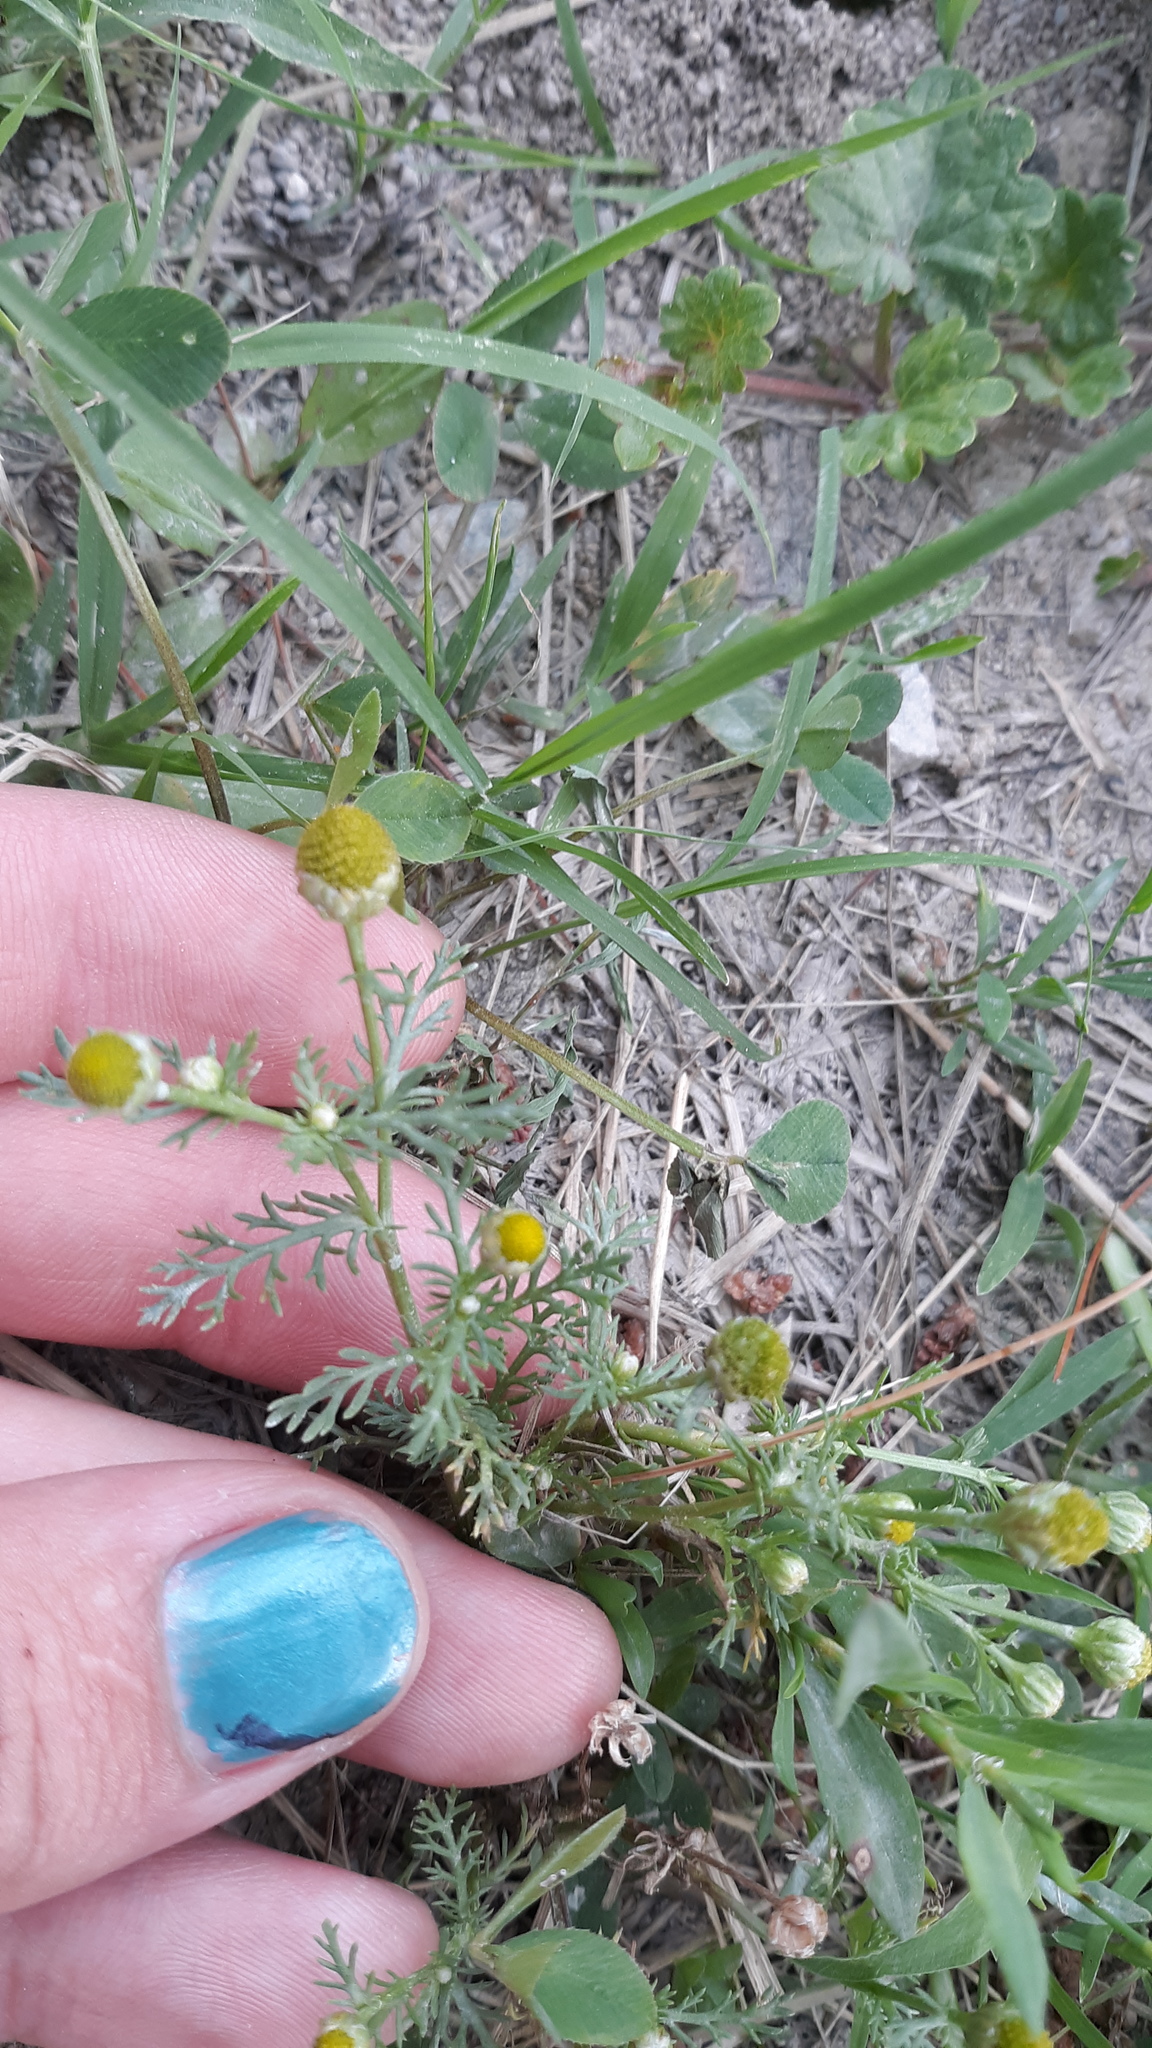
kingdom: Plantae
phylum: Tracheophyta
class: Magnoliopsida
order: Asterales
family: Asteraceae
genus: Matricaria
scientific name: Matricaria discoidea
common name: Disc mayweed
